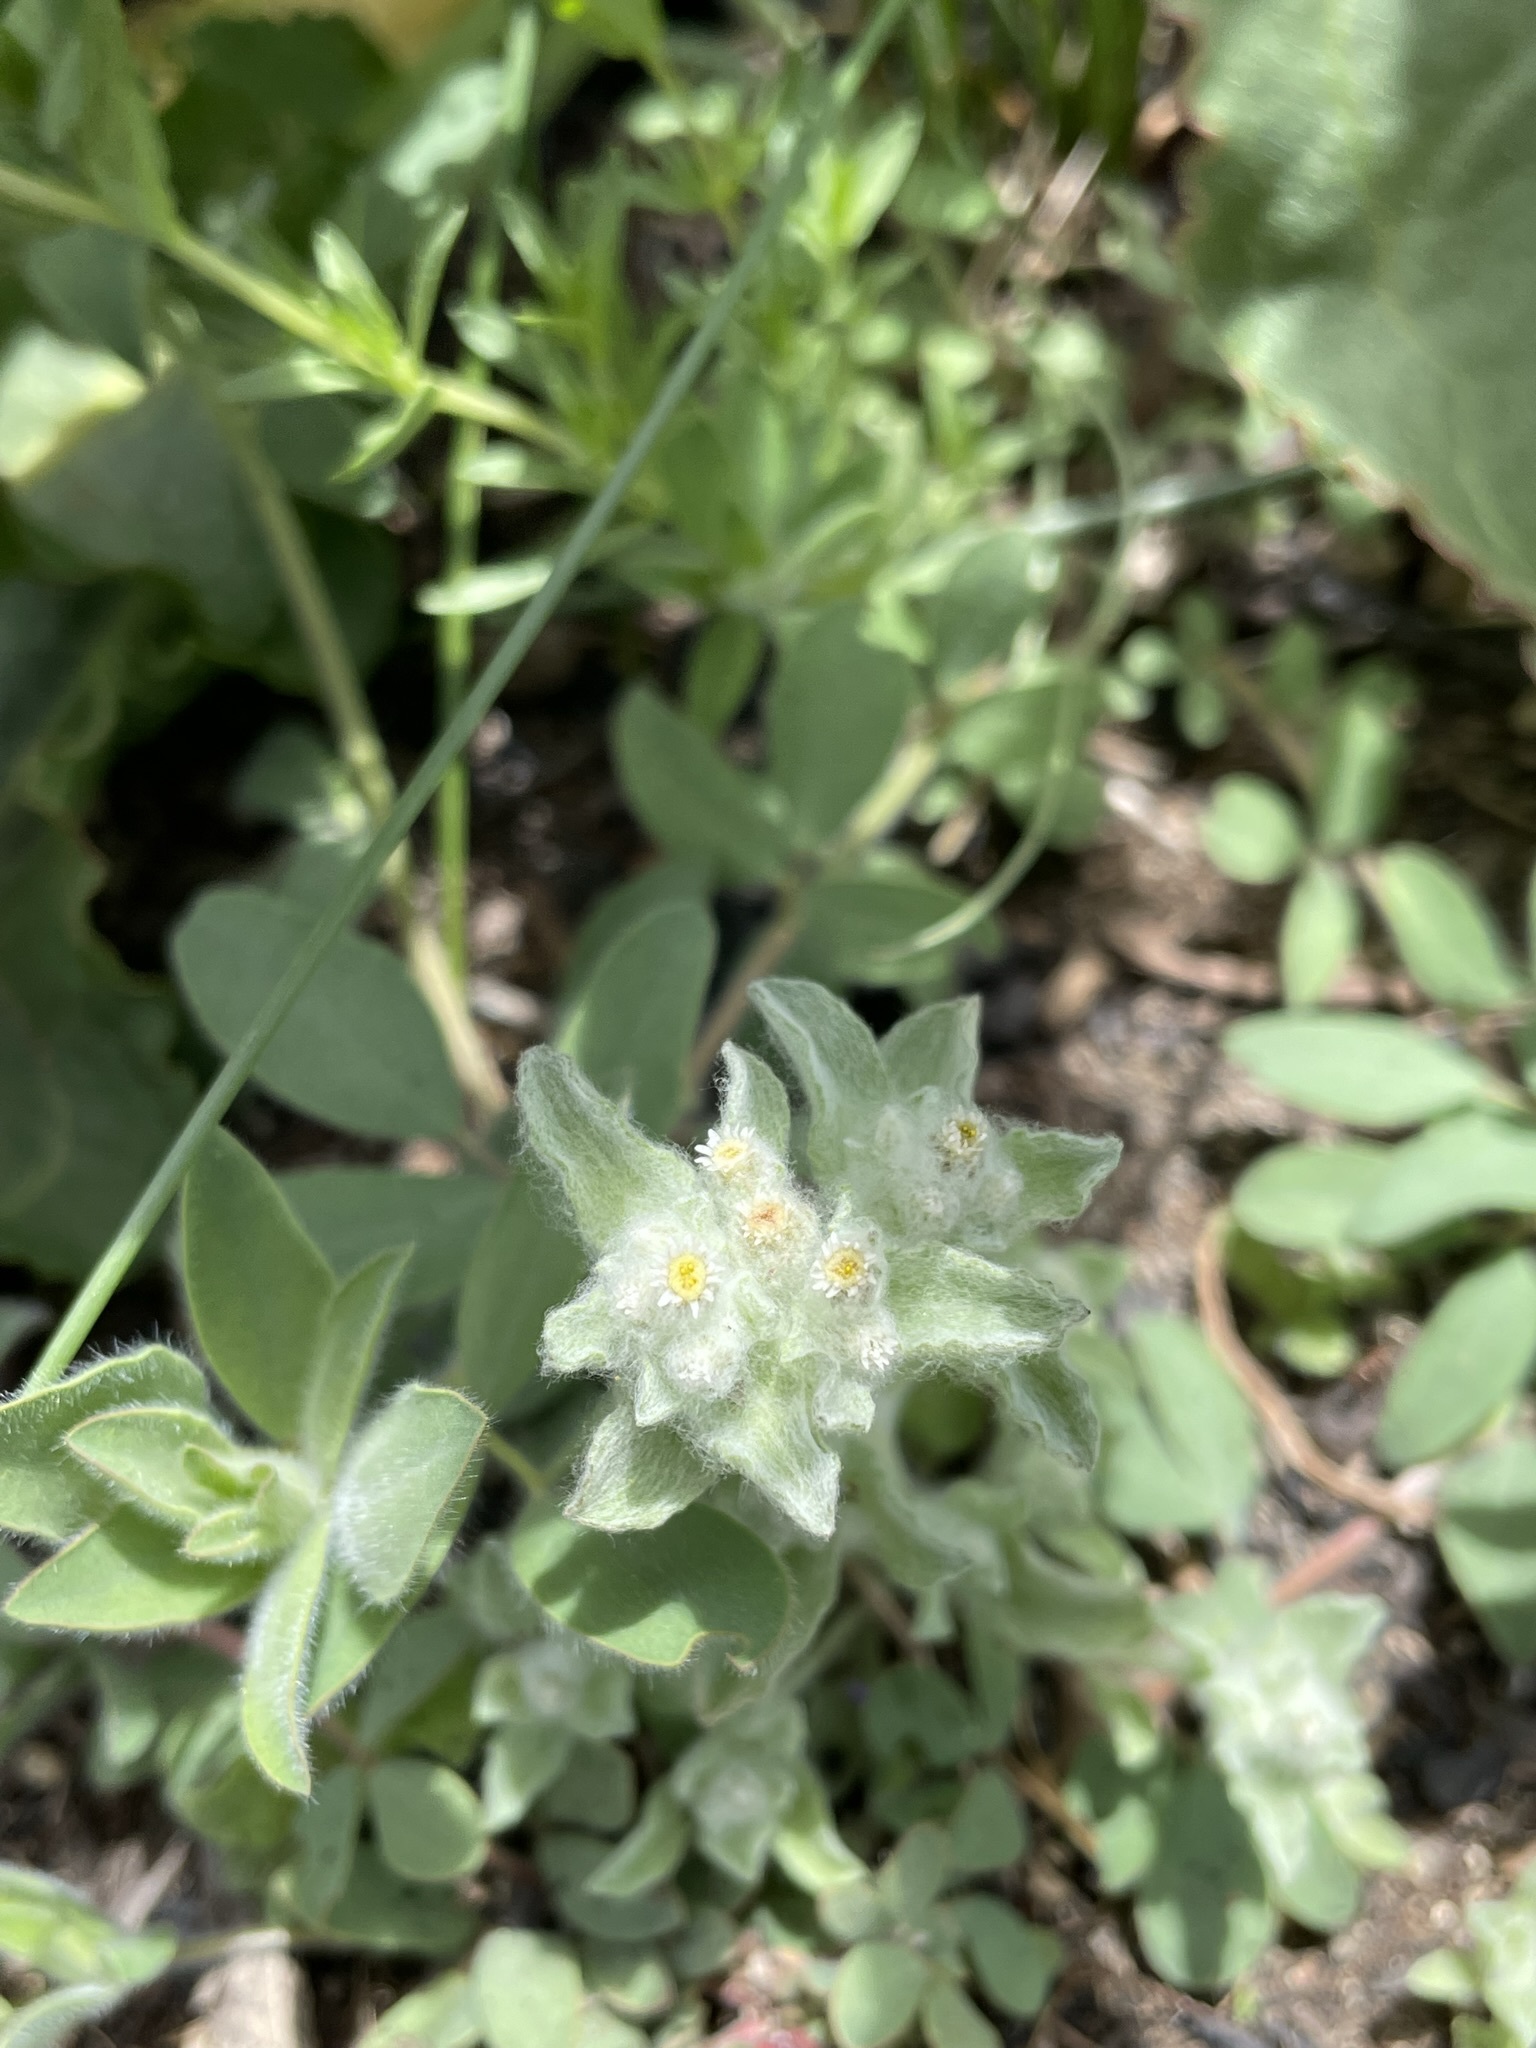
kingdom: Plantae
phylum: Tracheophyta
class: Magnoliopsida
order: Asterales
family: Asteraceae
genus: Gnaphalium
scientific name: Gnaphalium palustre
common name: Western marsh cudweed
